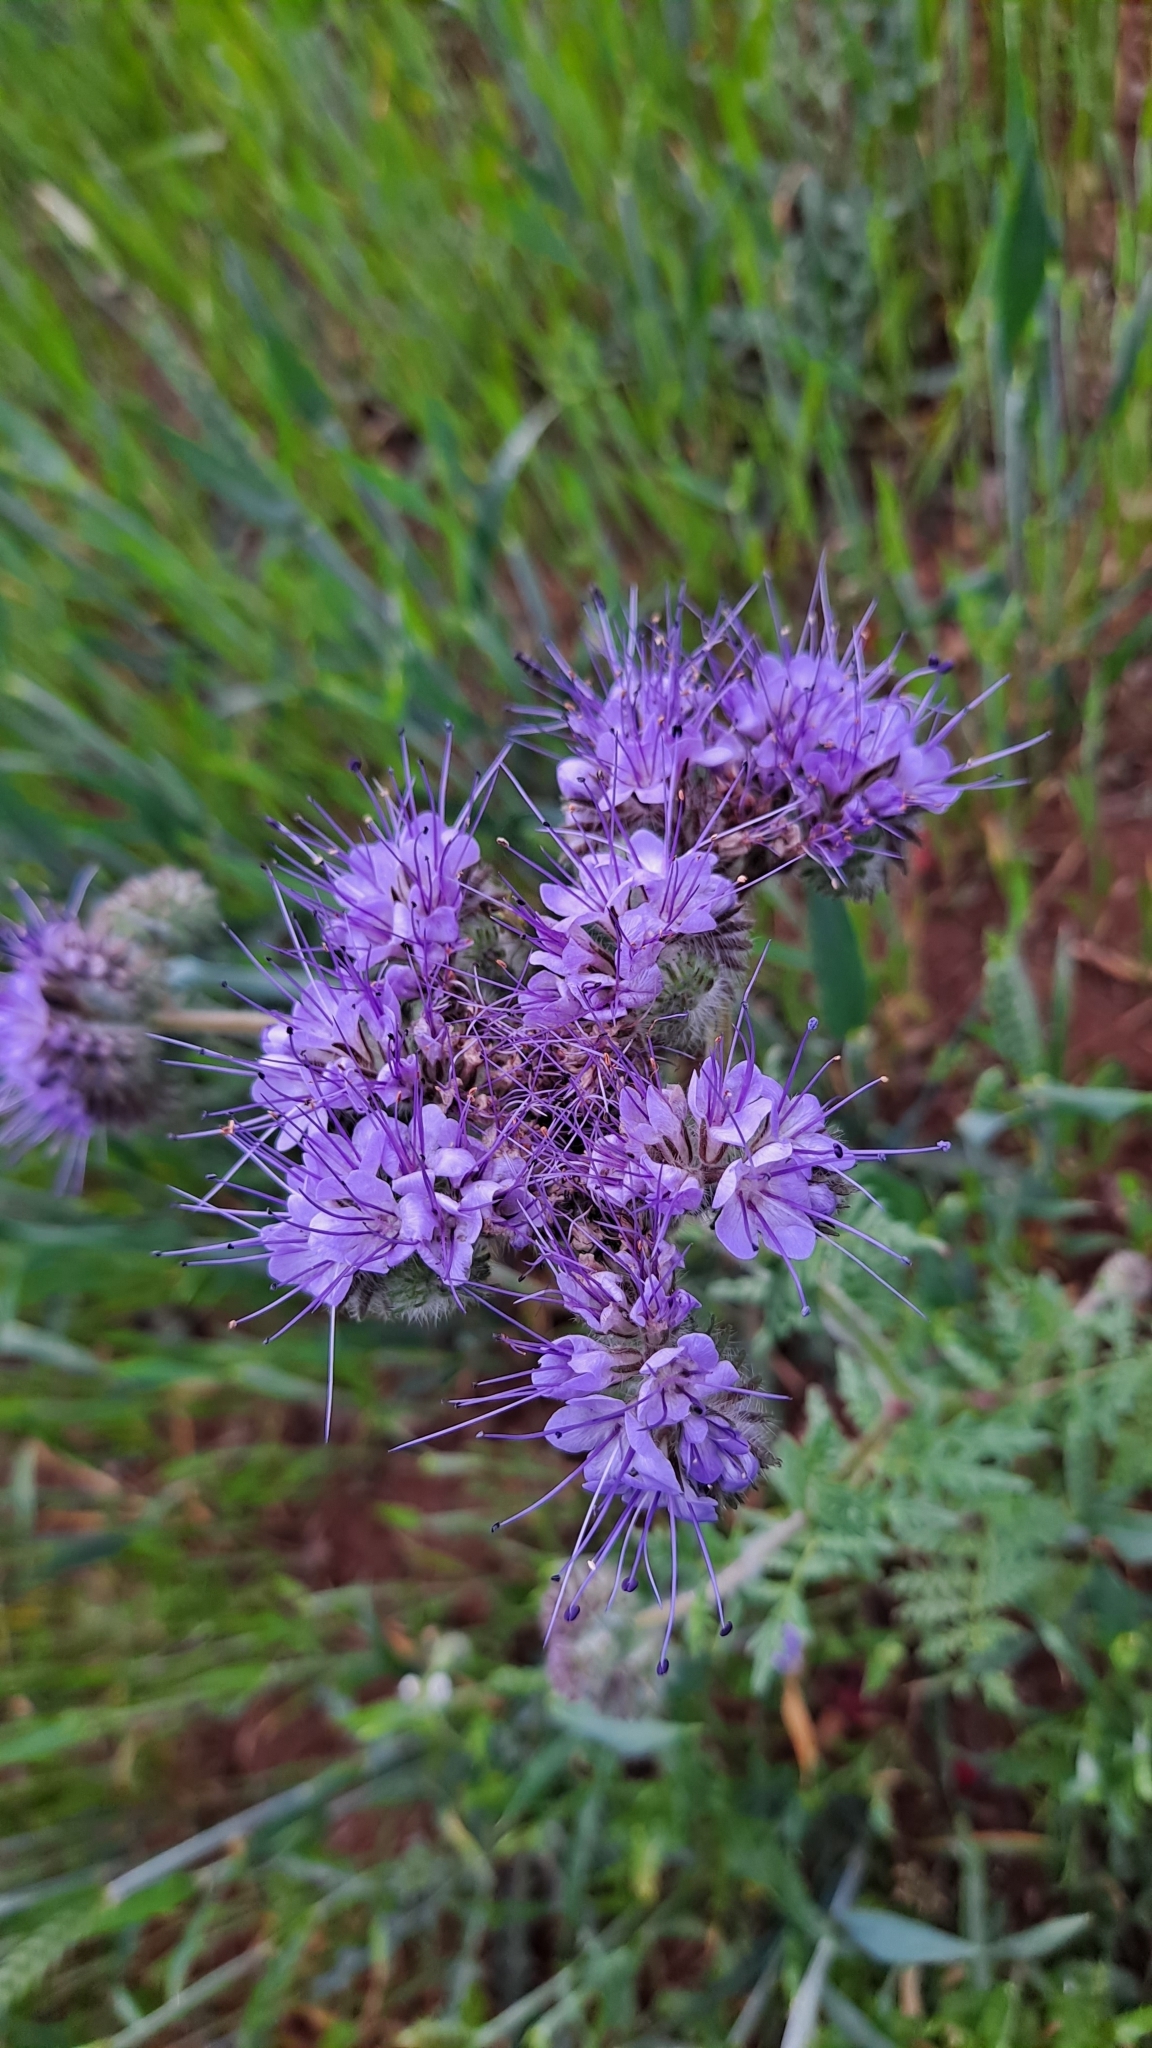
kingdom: Plantae
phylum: Tracheophyta
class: Magnoliopsida
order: Boraginales
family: Hydrophyllaceae
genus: Phacelia
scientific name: Phacelia tanacetifolia
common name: Phacelia
